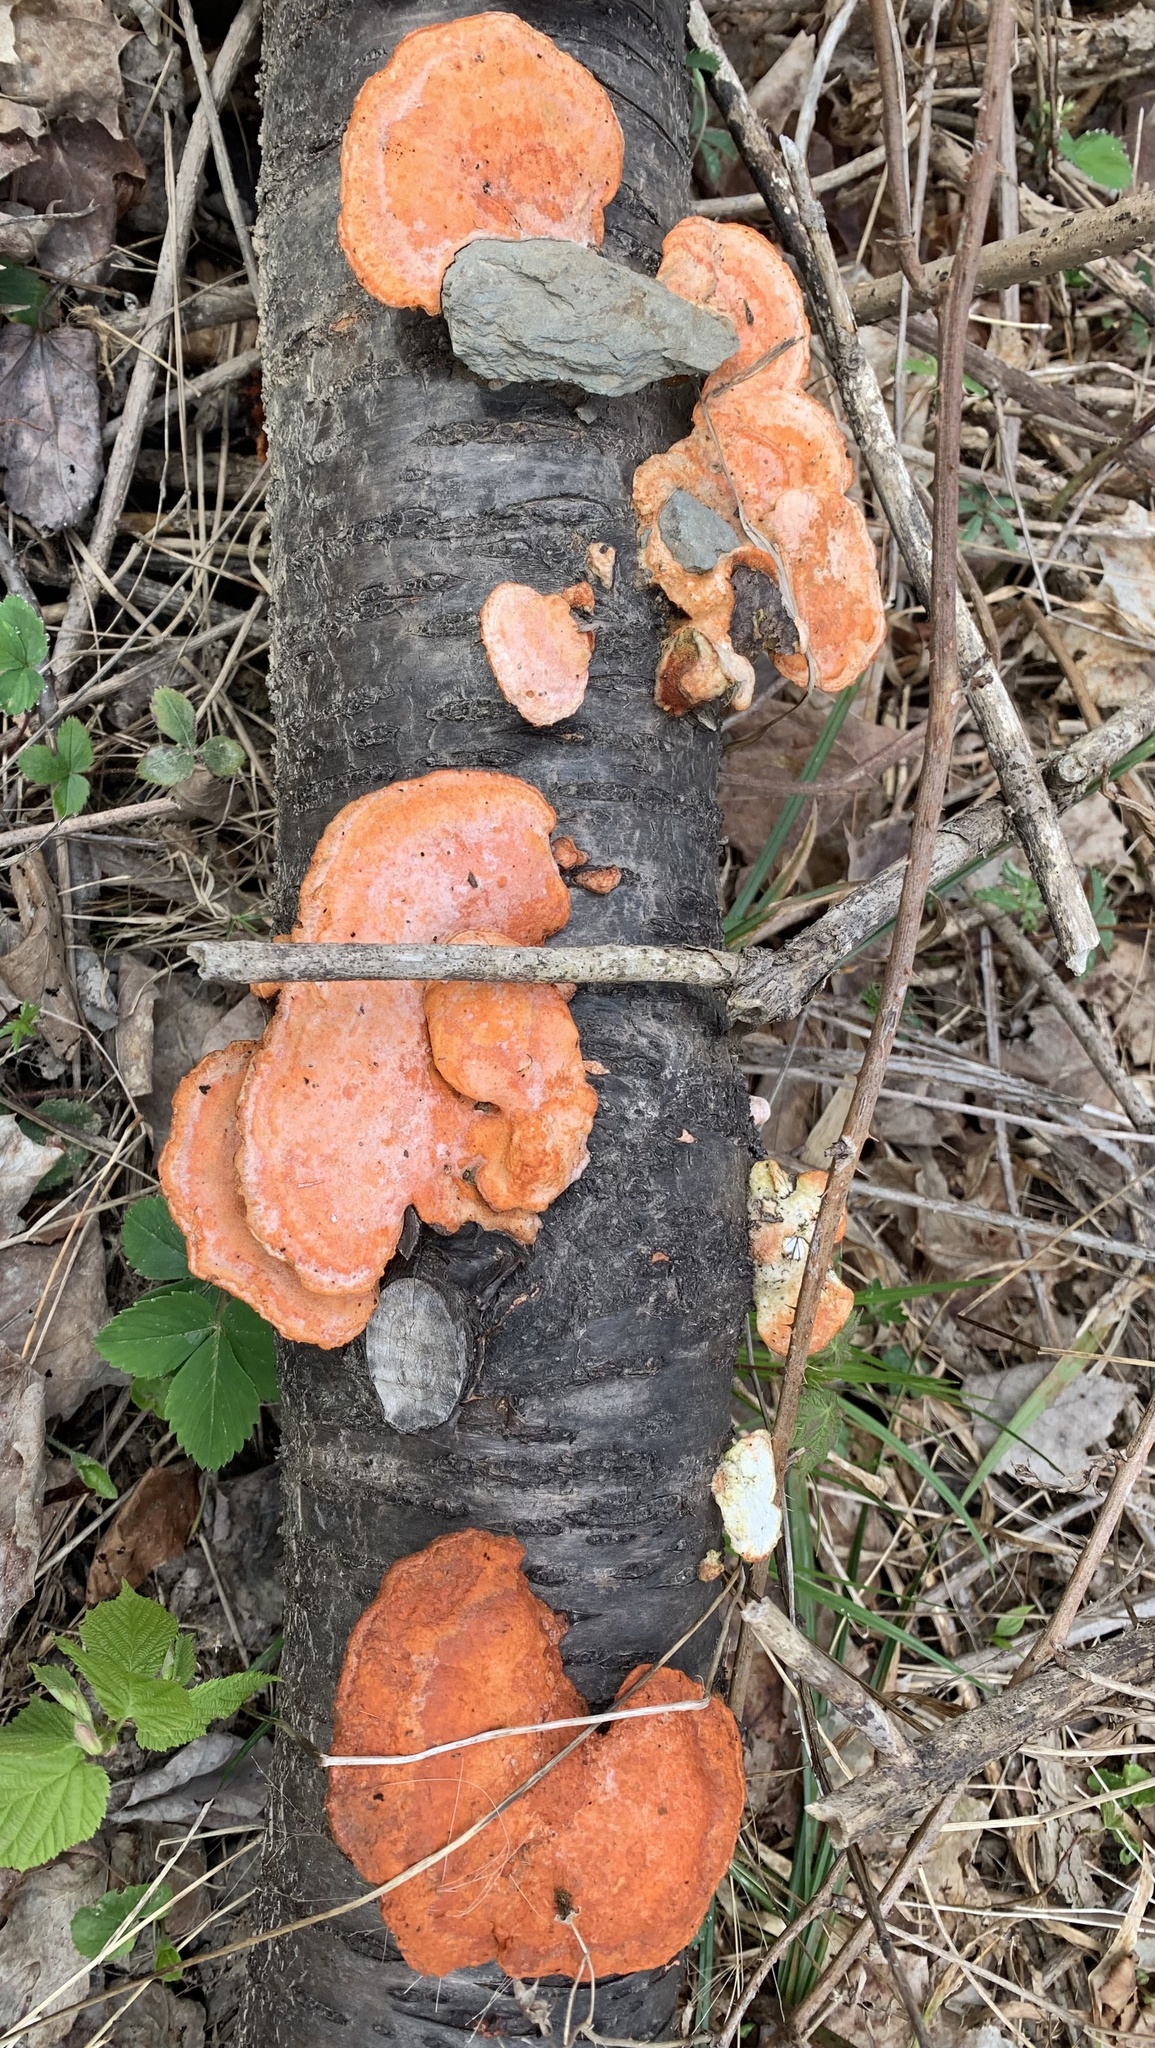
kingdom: Fungi
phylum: Basidiomycota
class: Agaricomycetes
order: Polyporales
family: Polyporaceae
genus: Trametes
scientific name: Trametes cinnabarina
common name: Northern cinnabar polypore
